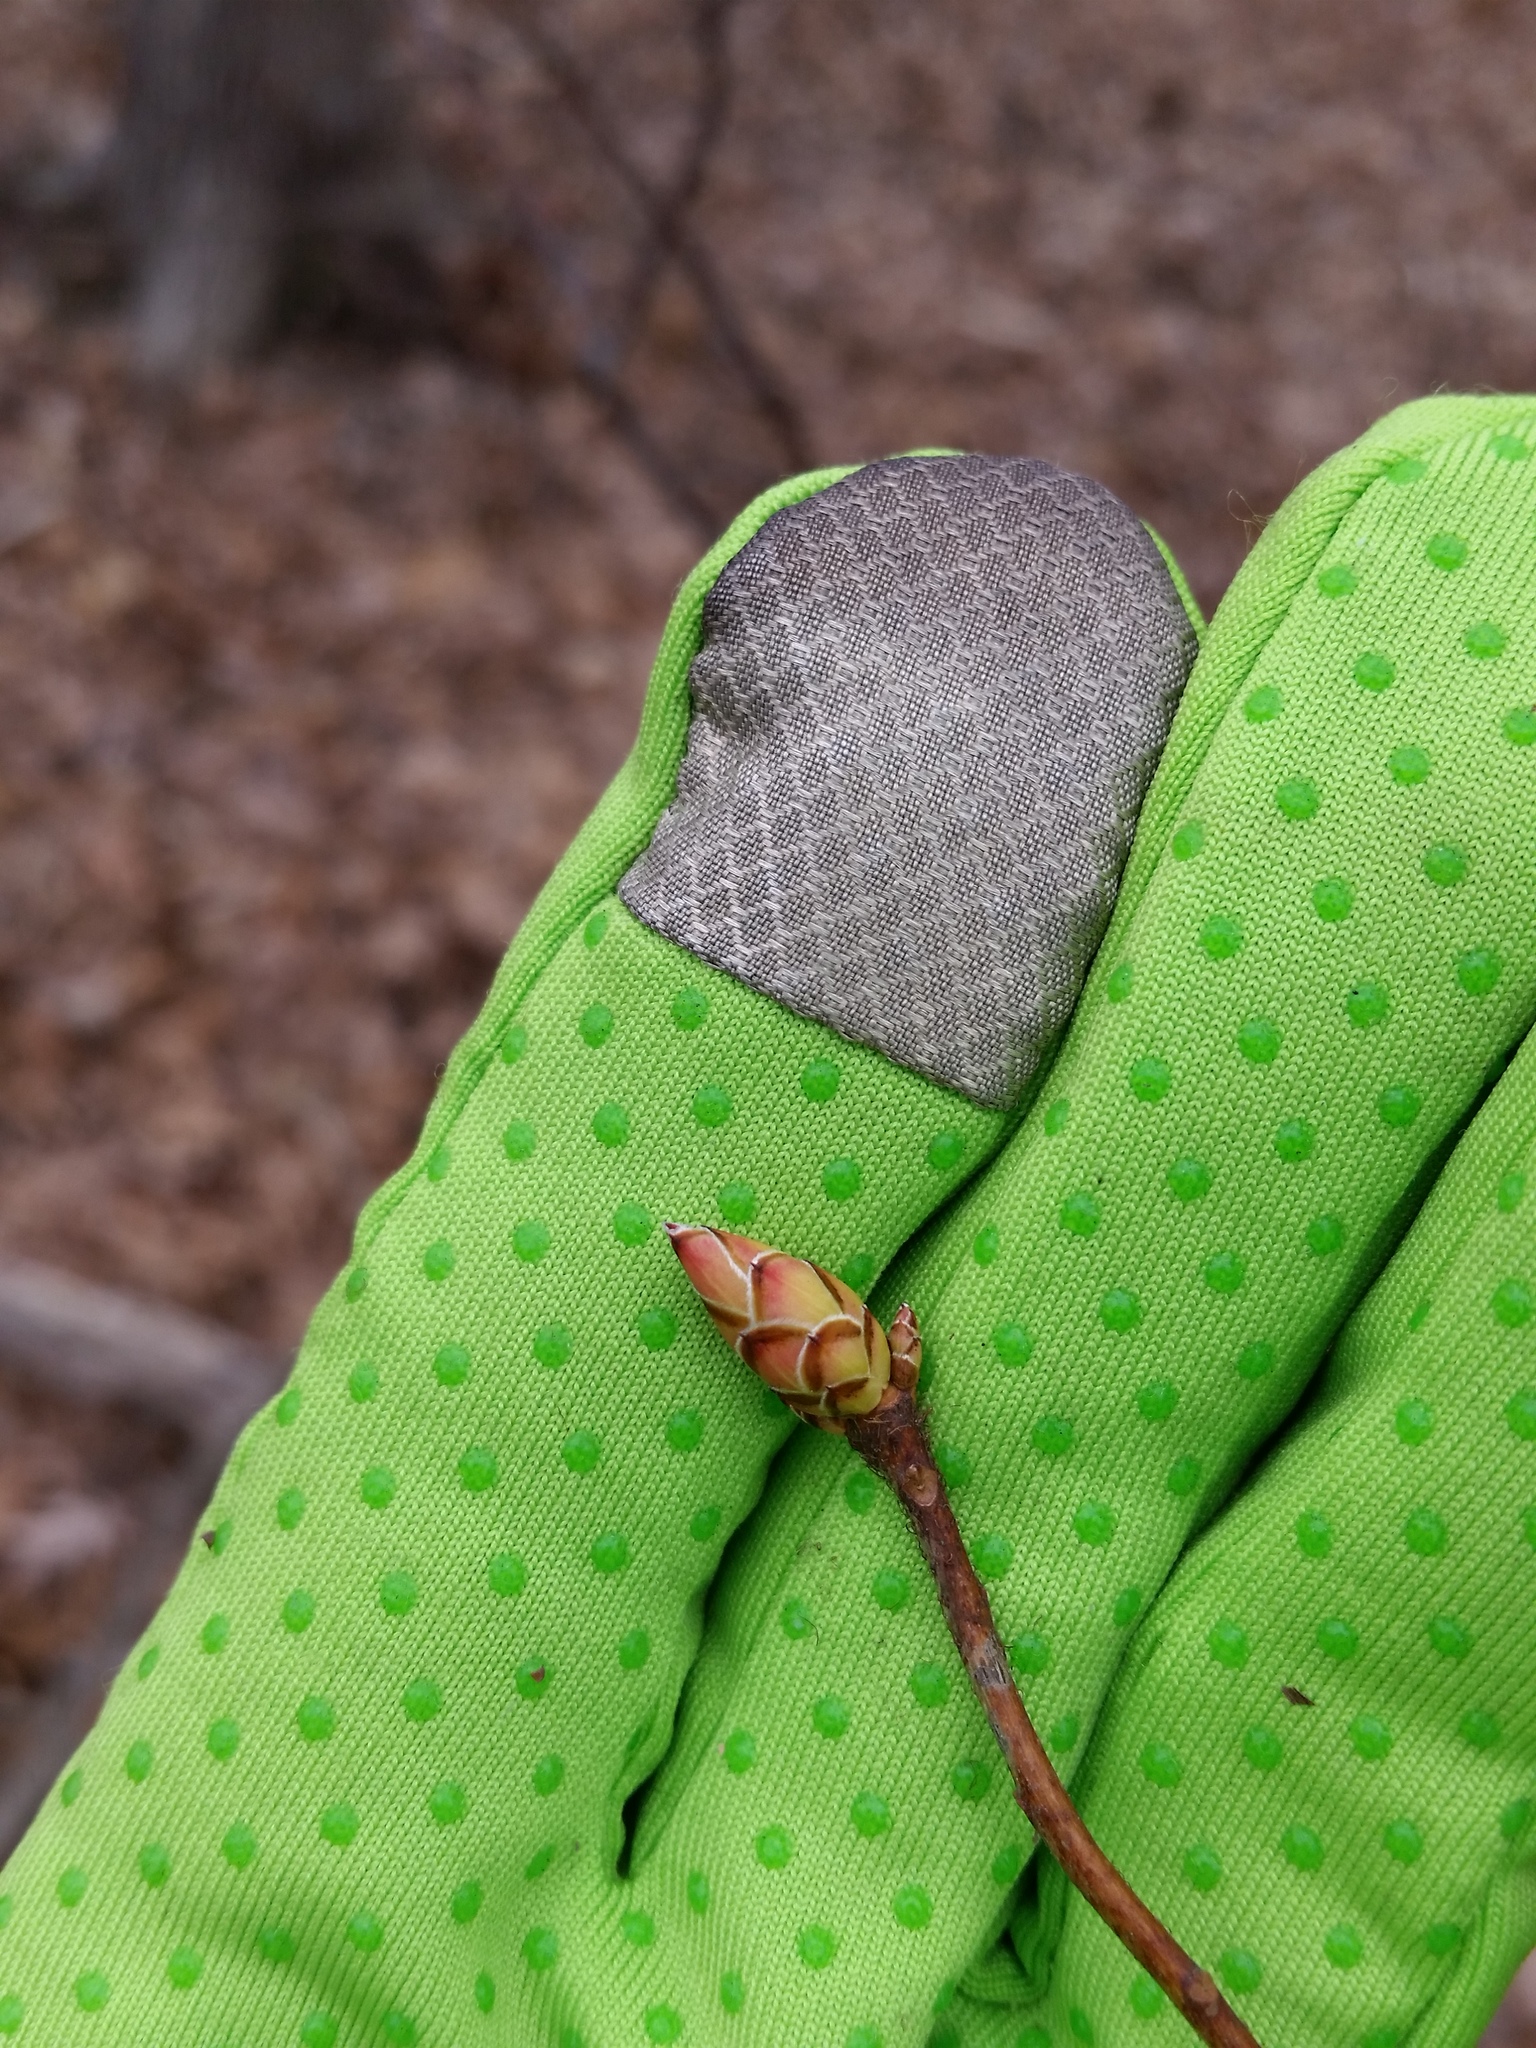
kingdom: Plantae
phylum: Tracheophyta
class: Magnoliopsida
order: Ericales
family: Ericaceae
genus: Rhododendron
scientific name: Rhododendron periclymenoides
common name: Election-pink
